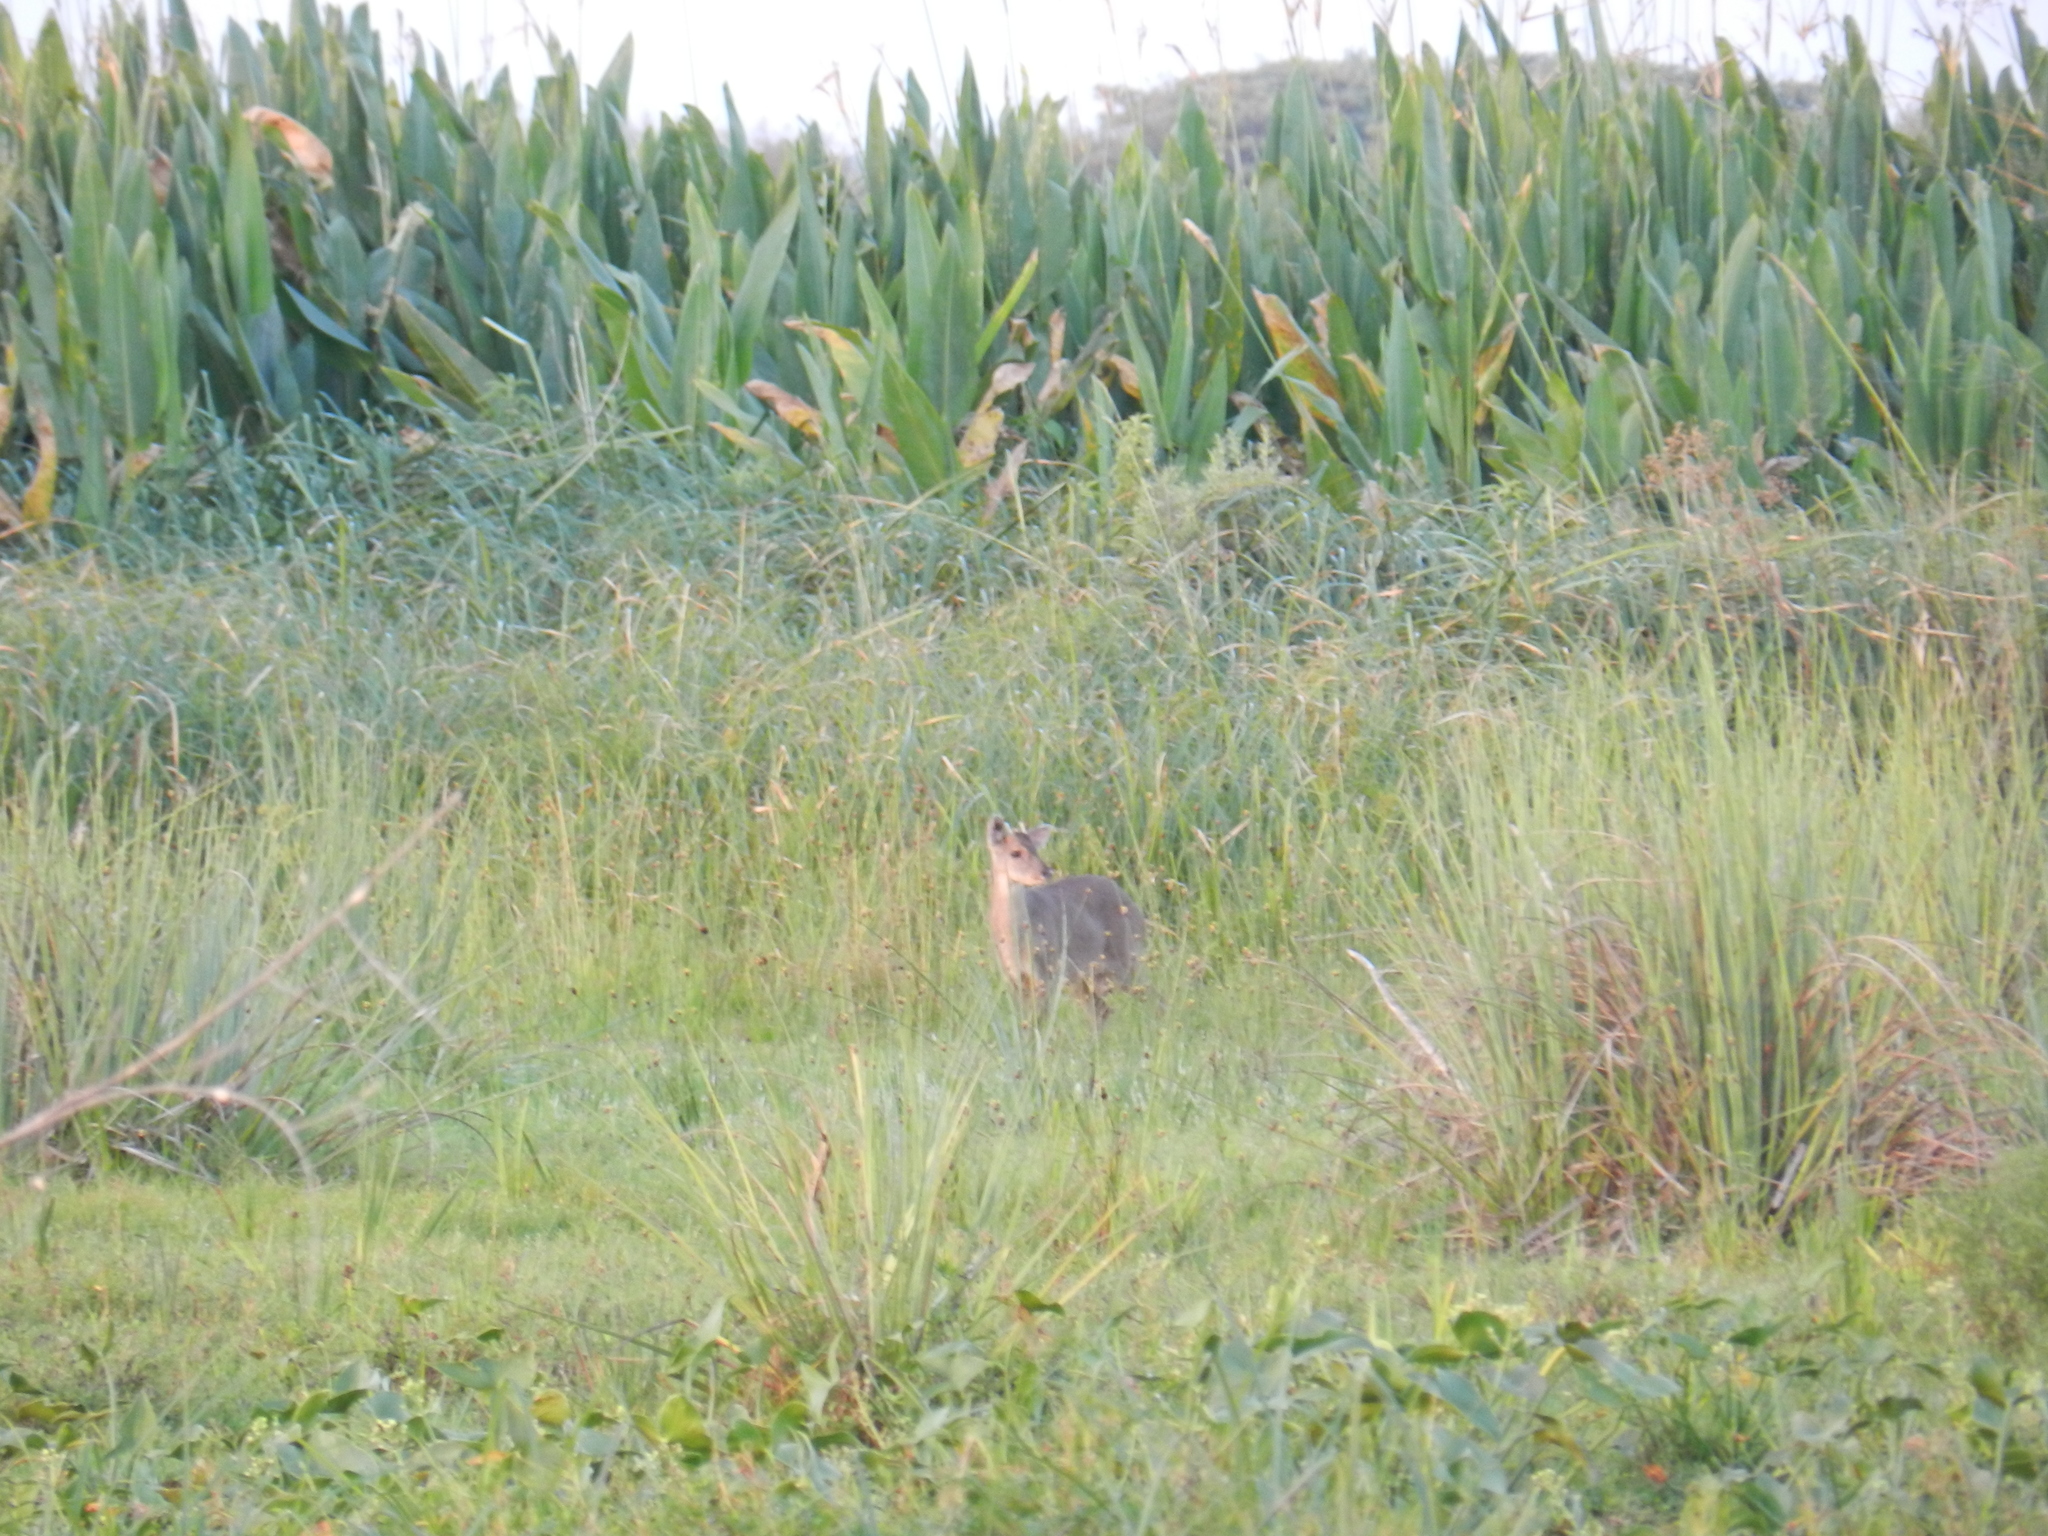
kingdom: Animalia
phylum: Chordata
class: Mammalia
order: Artiodactyla
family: Cervidae
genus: Mazama
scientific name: Mazama gouazoubira
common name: Gray brocket
